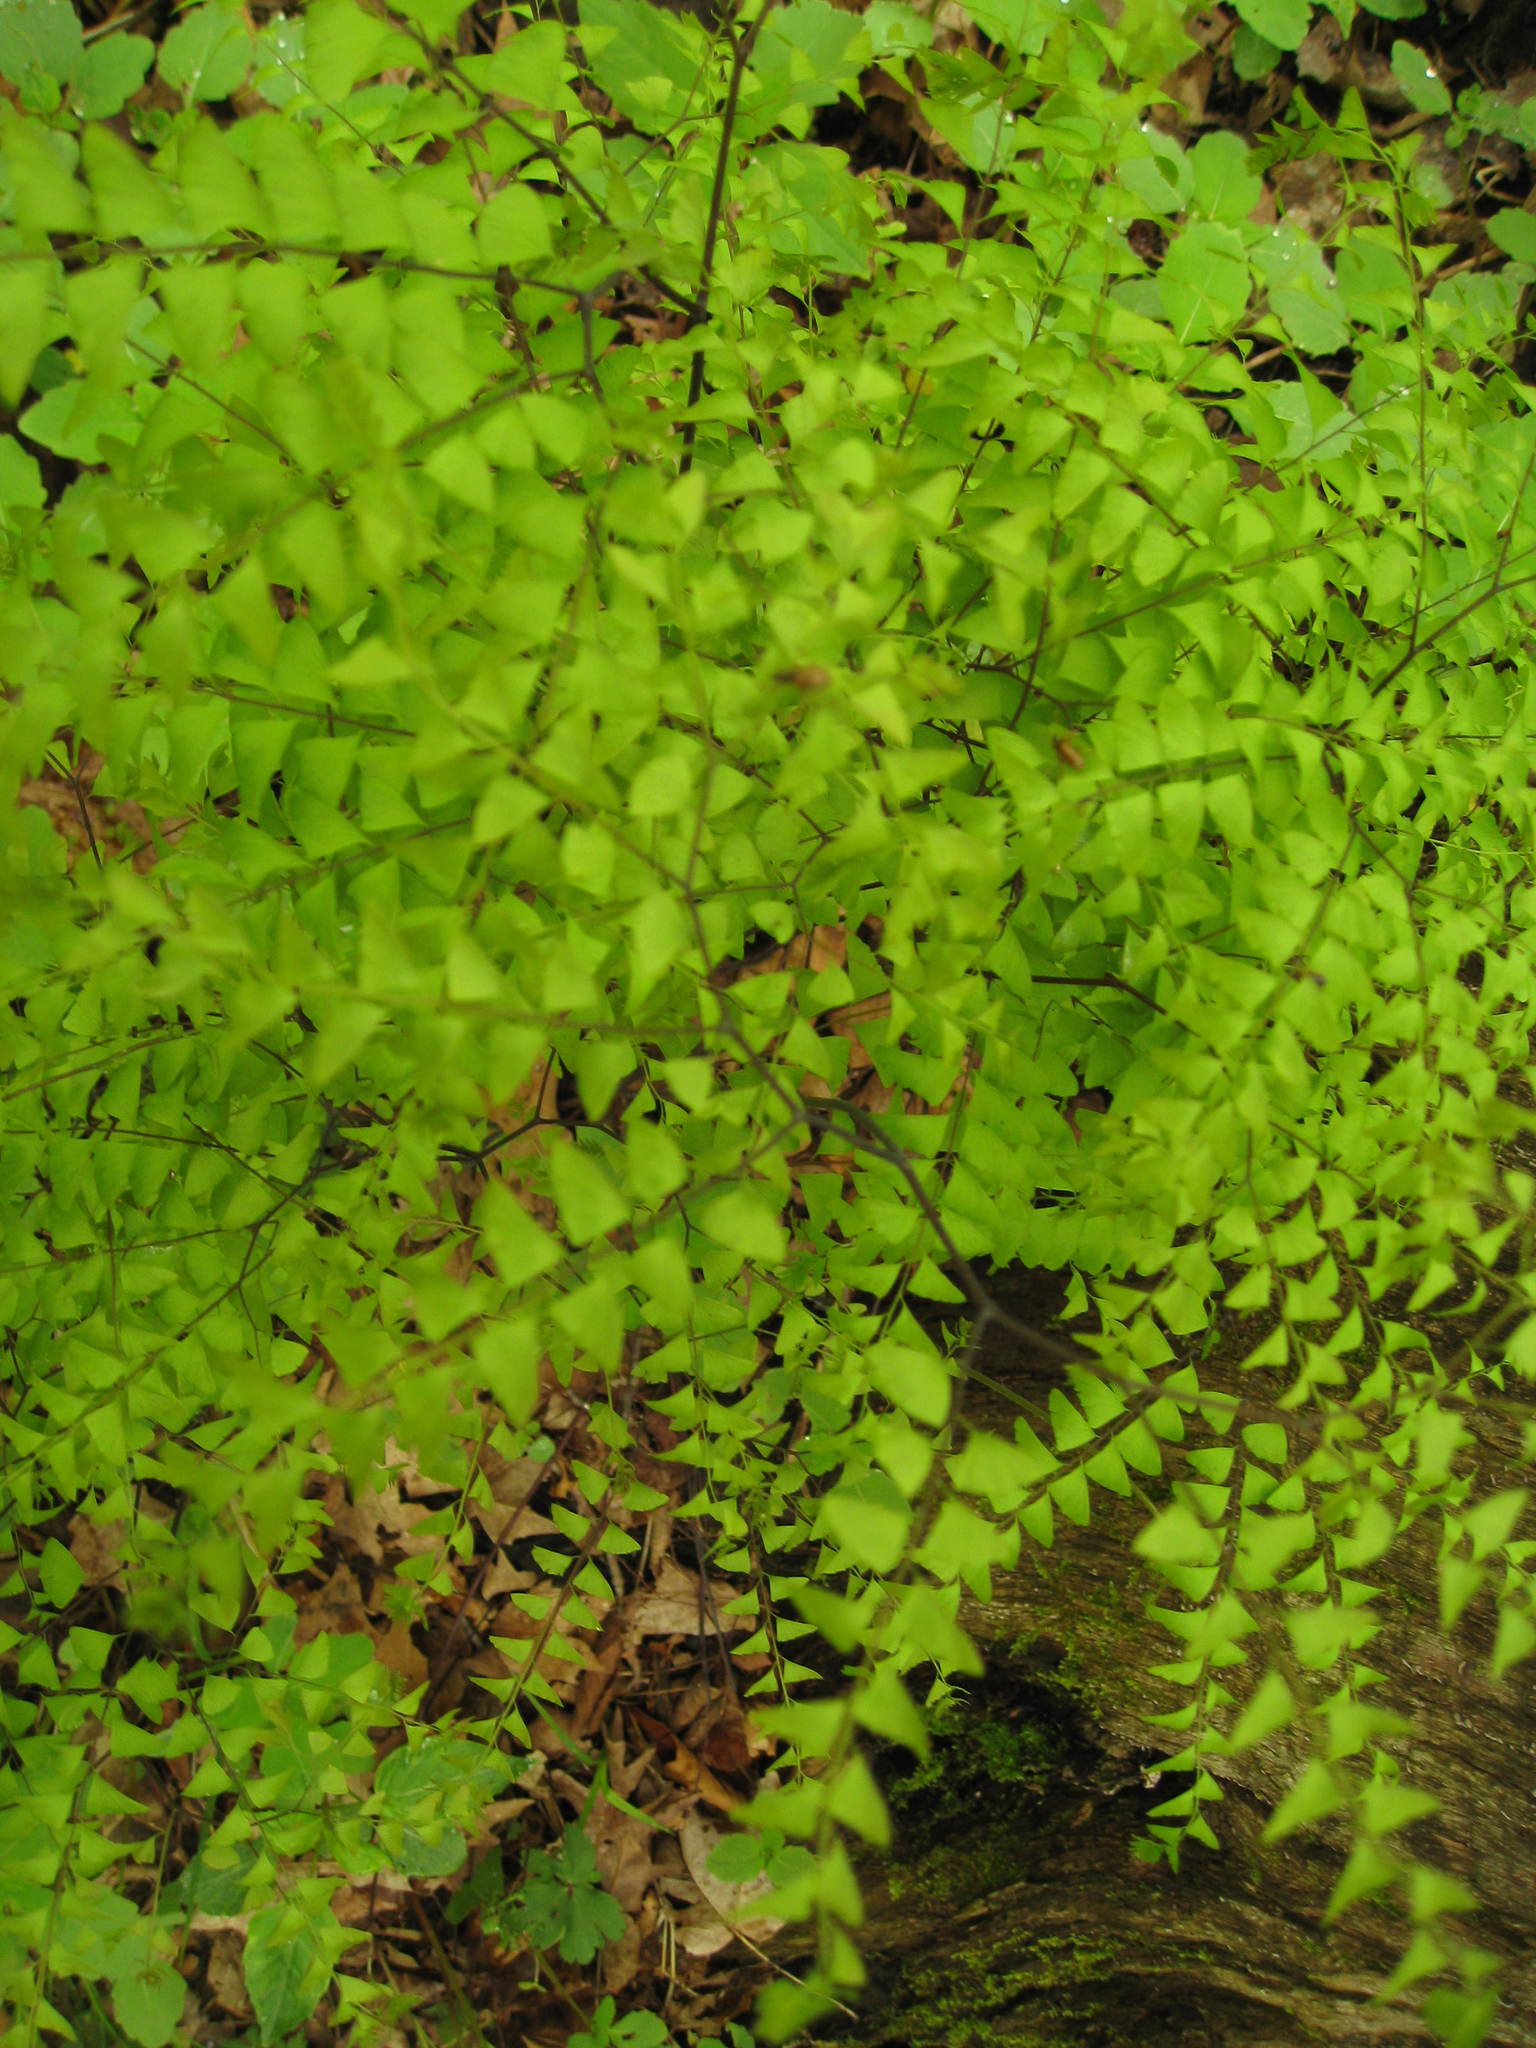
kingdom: Plantae
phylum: Tracheophyta
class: Polypodiopsida
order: Polypodiales
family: Pteridaceae
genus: Adiantum
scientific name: Adiantum pedatum
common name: Five-finger fern
